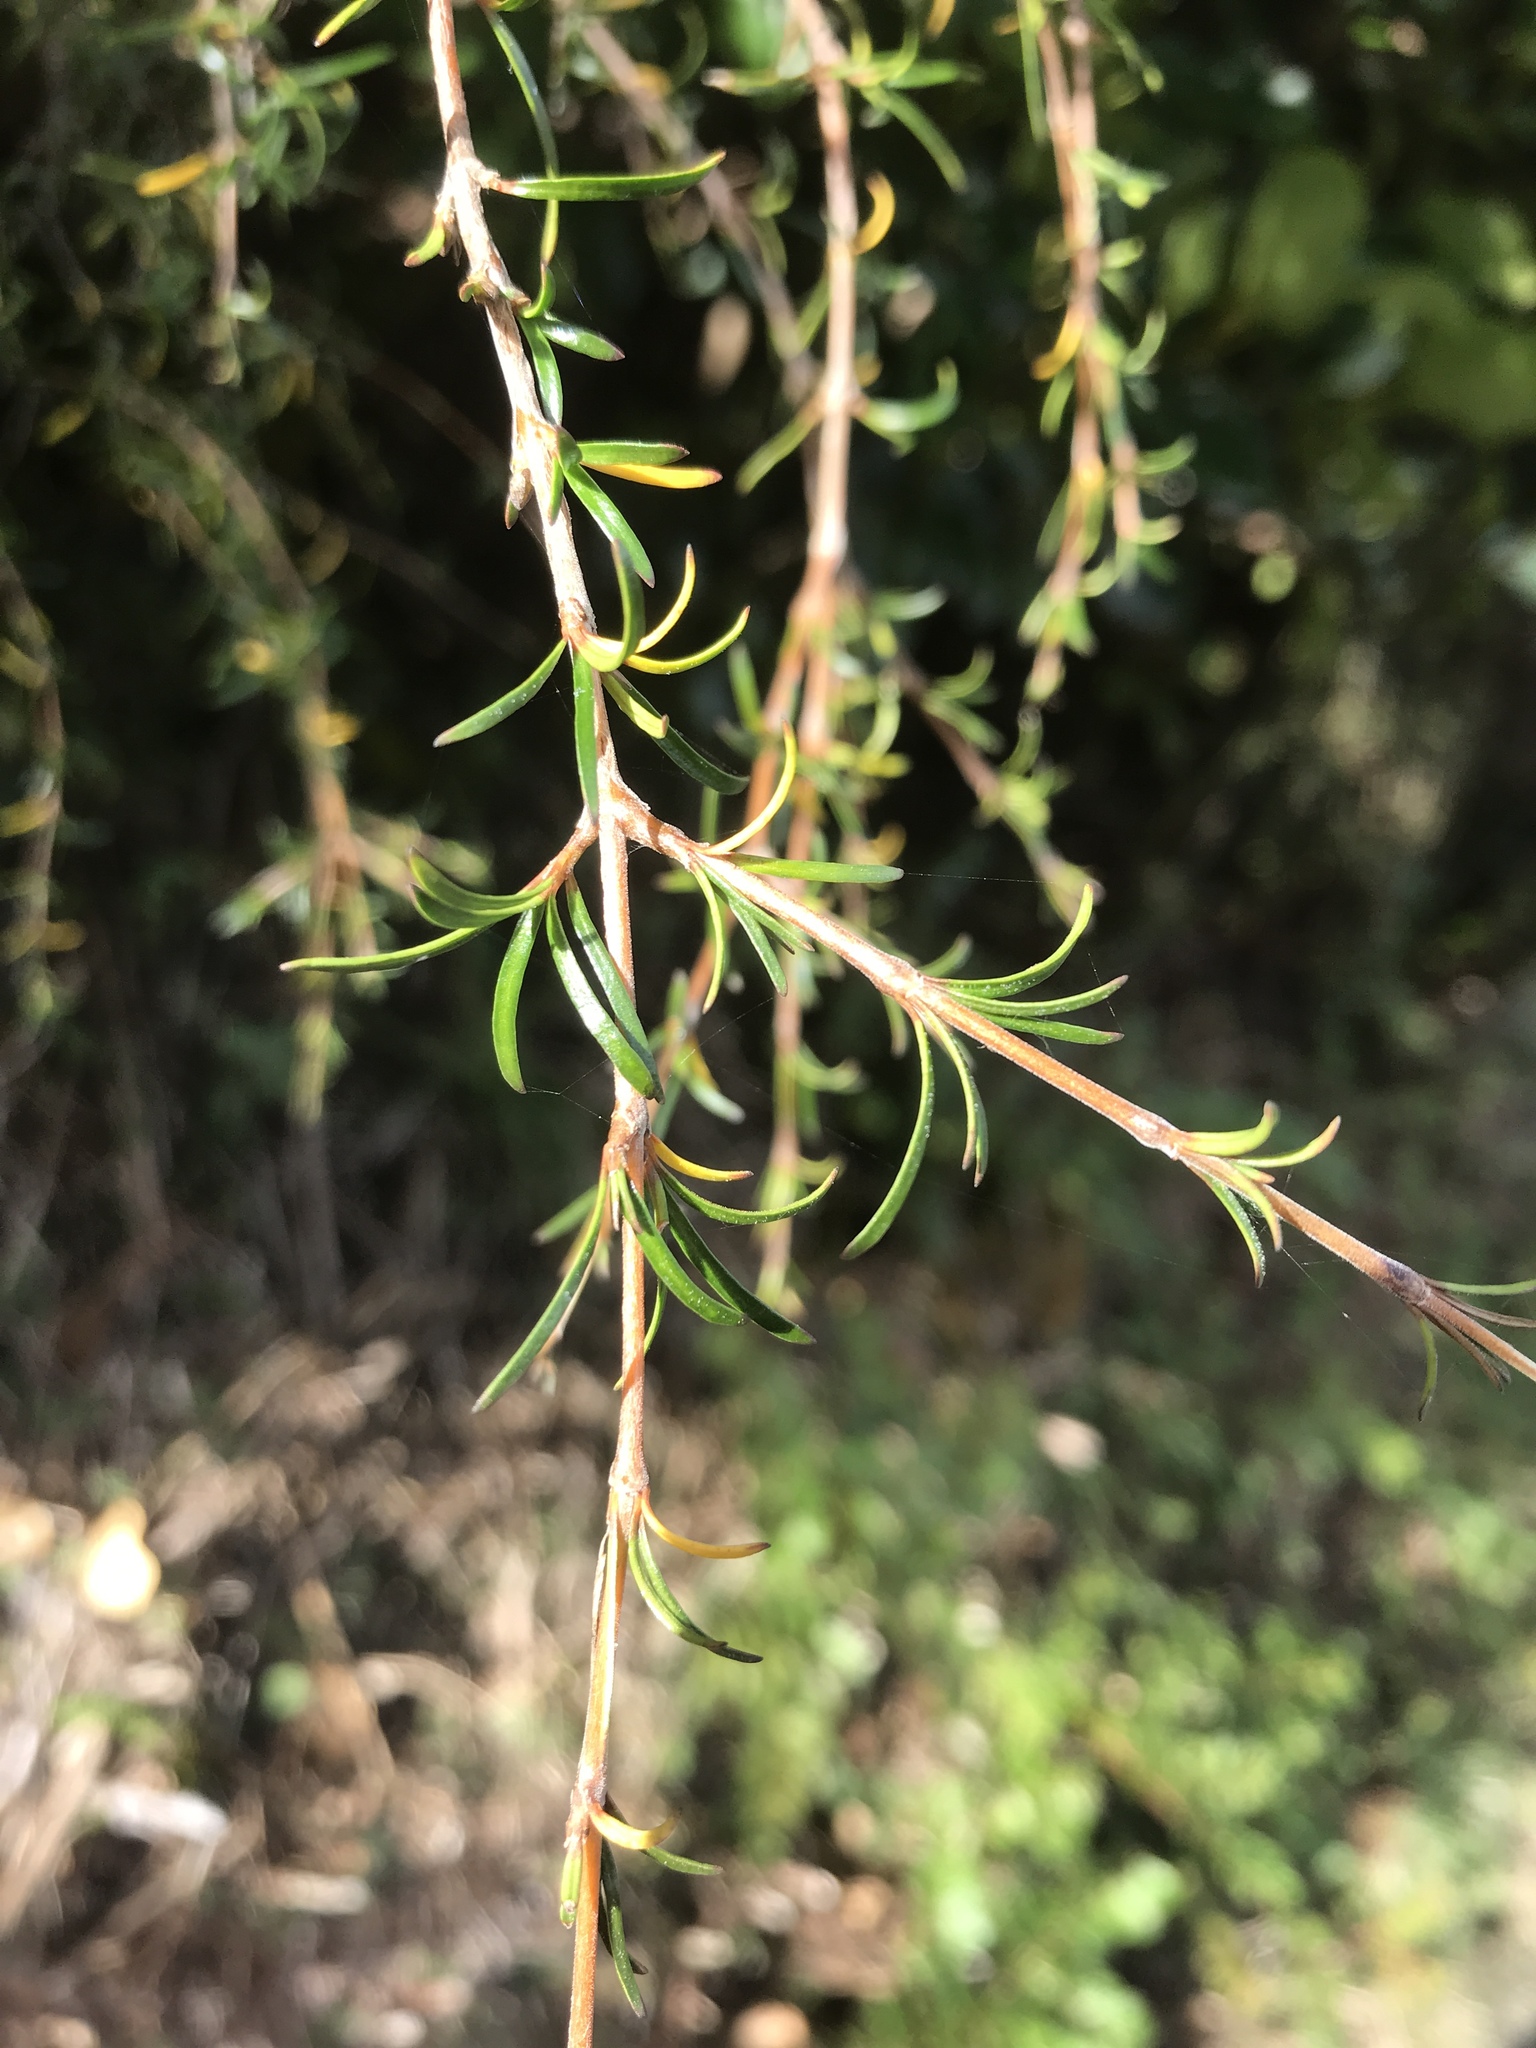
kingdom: Plantae
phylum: Tracheophyta
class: Magnoliopsida
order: Gentianales
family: Rubiaceae
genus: Coprosma
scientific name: Coprosma rugosa
